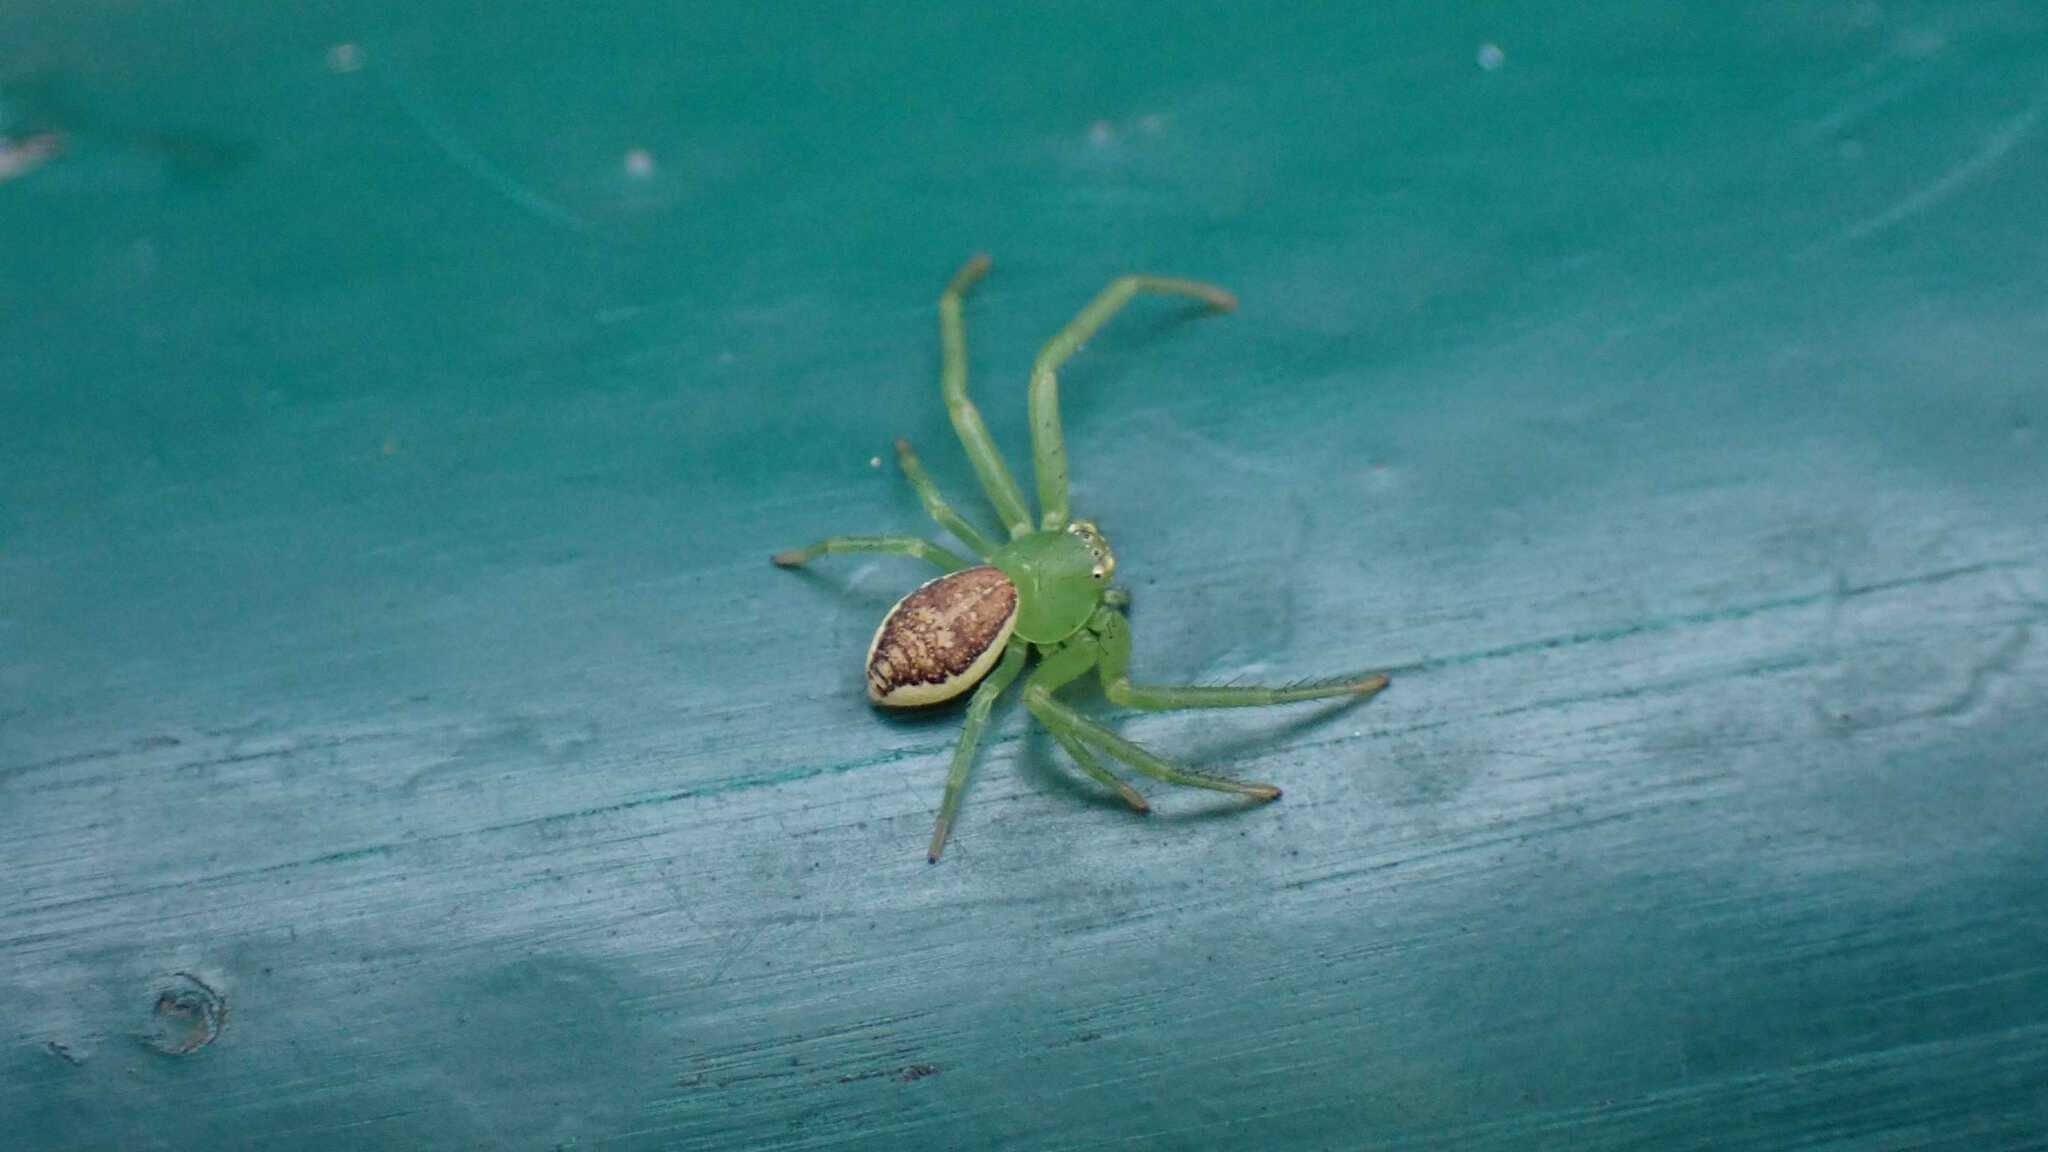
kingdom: Animalia
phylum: Arthropoda
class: Arachnida
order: Araneae
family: Thomisidae
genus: Diaea
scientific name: Diaea dorsata
